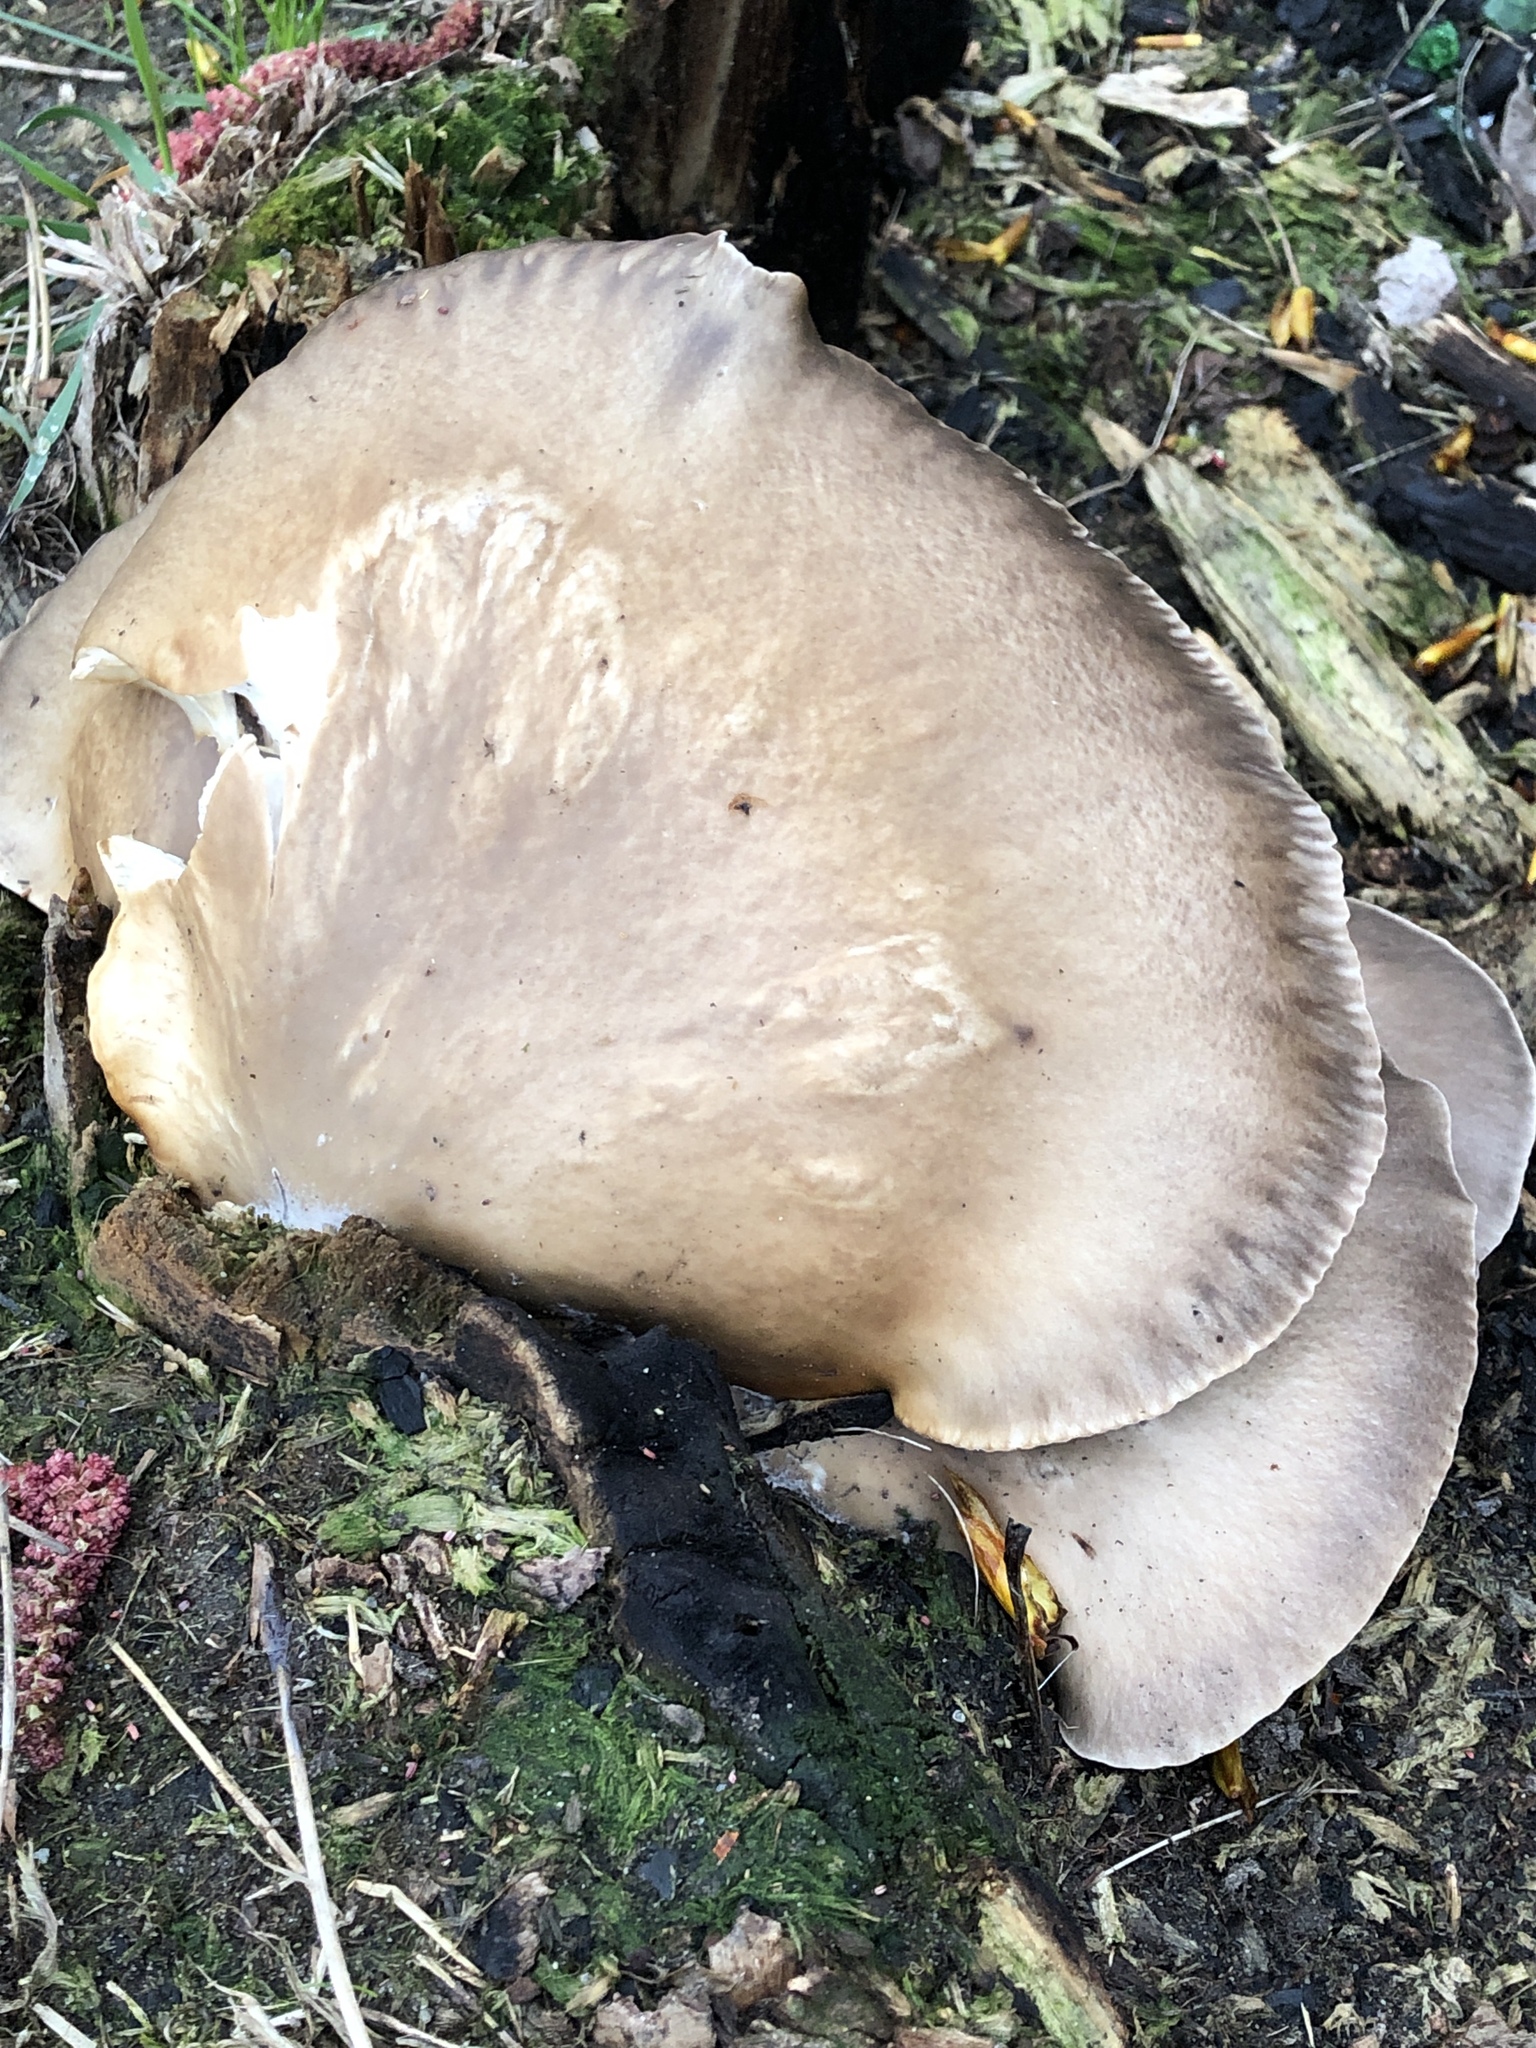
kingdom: Fungi
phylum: Basidiomycota
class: Agaricomycetes
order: Agaricales
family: Pleurotaceae
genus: Pleurotus
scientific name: Pleurotus ostreatus
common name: Oyster mushroom
